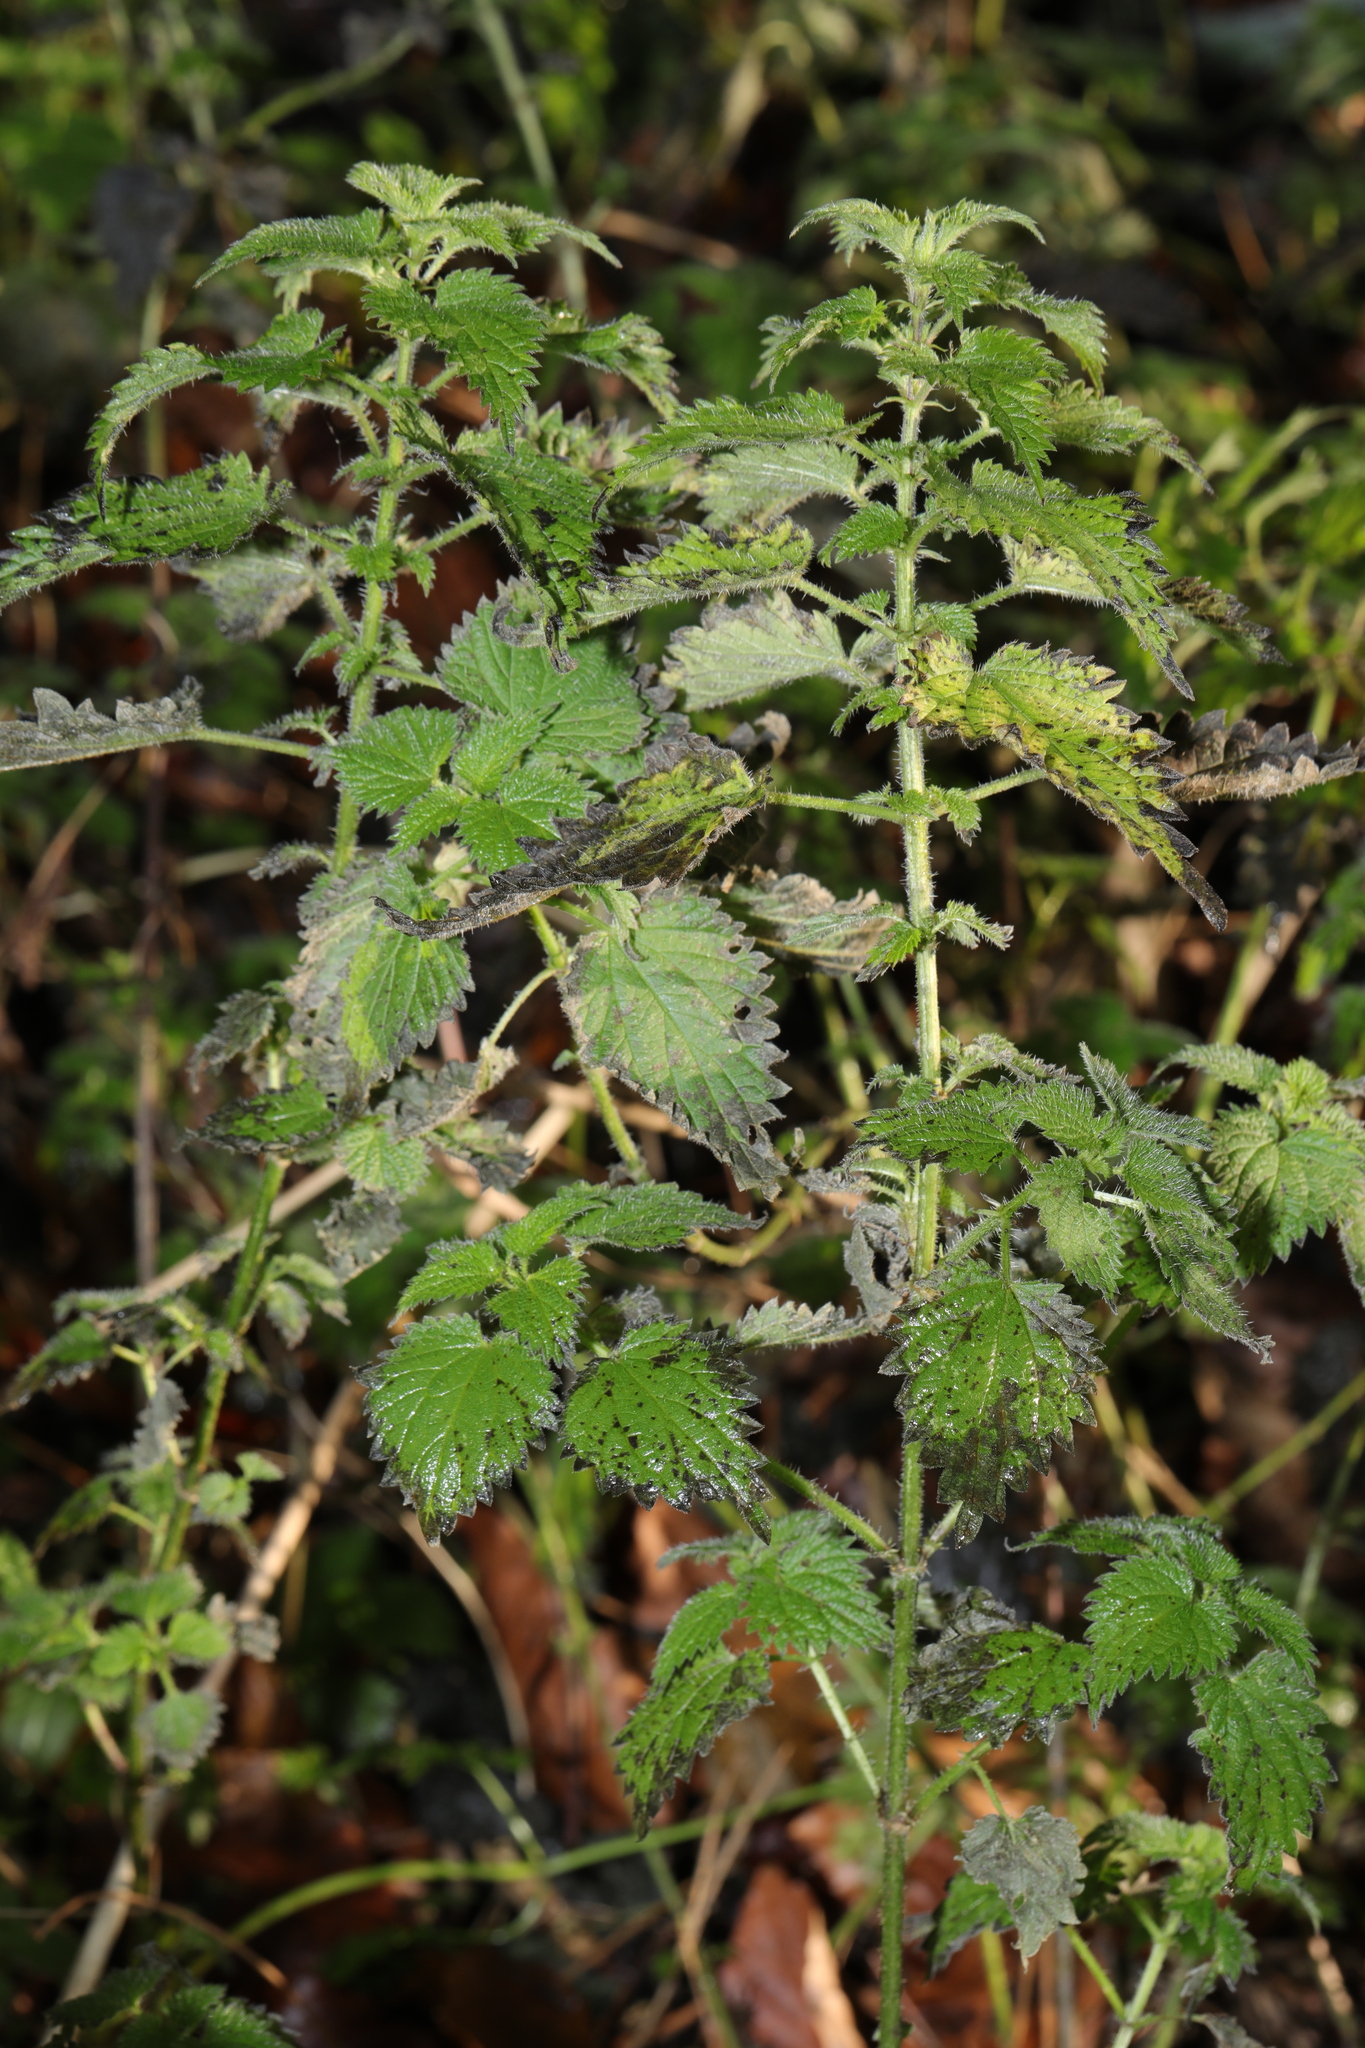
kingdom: Plantae
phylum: Tracheophyta
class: Magnoliopsida
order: Rosales
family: Urticaceae
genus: Urtica
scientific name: Urtica dioica
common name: Common nettle
